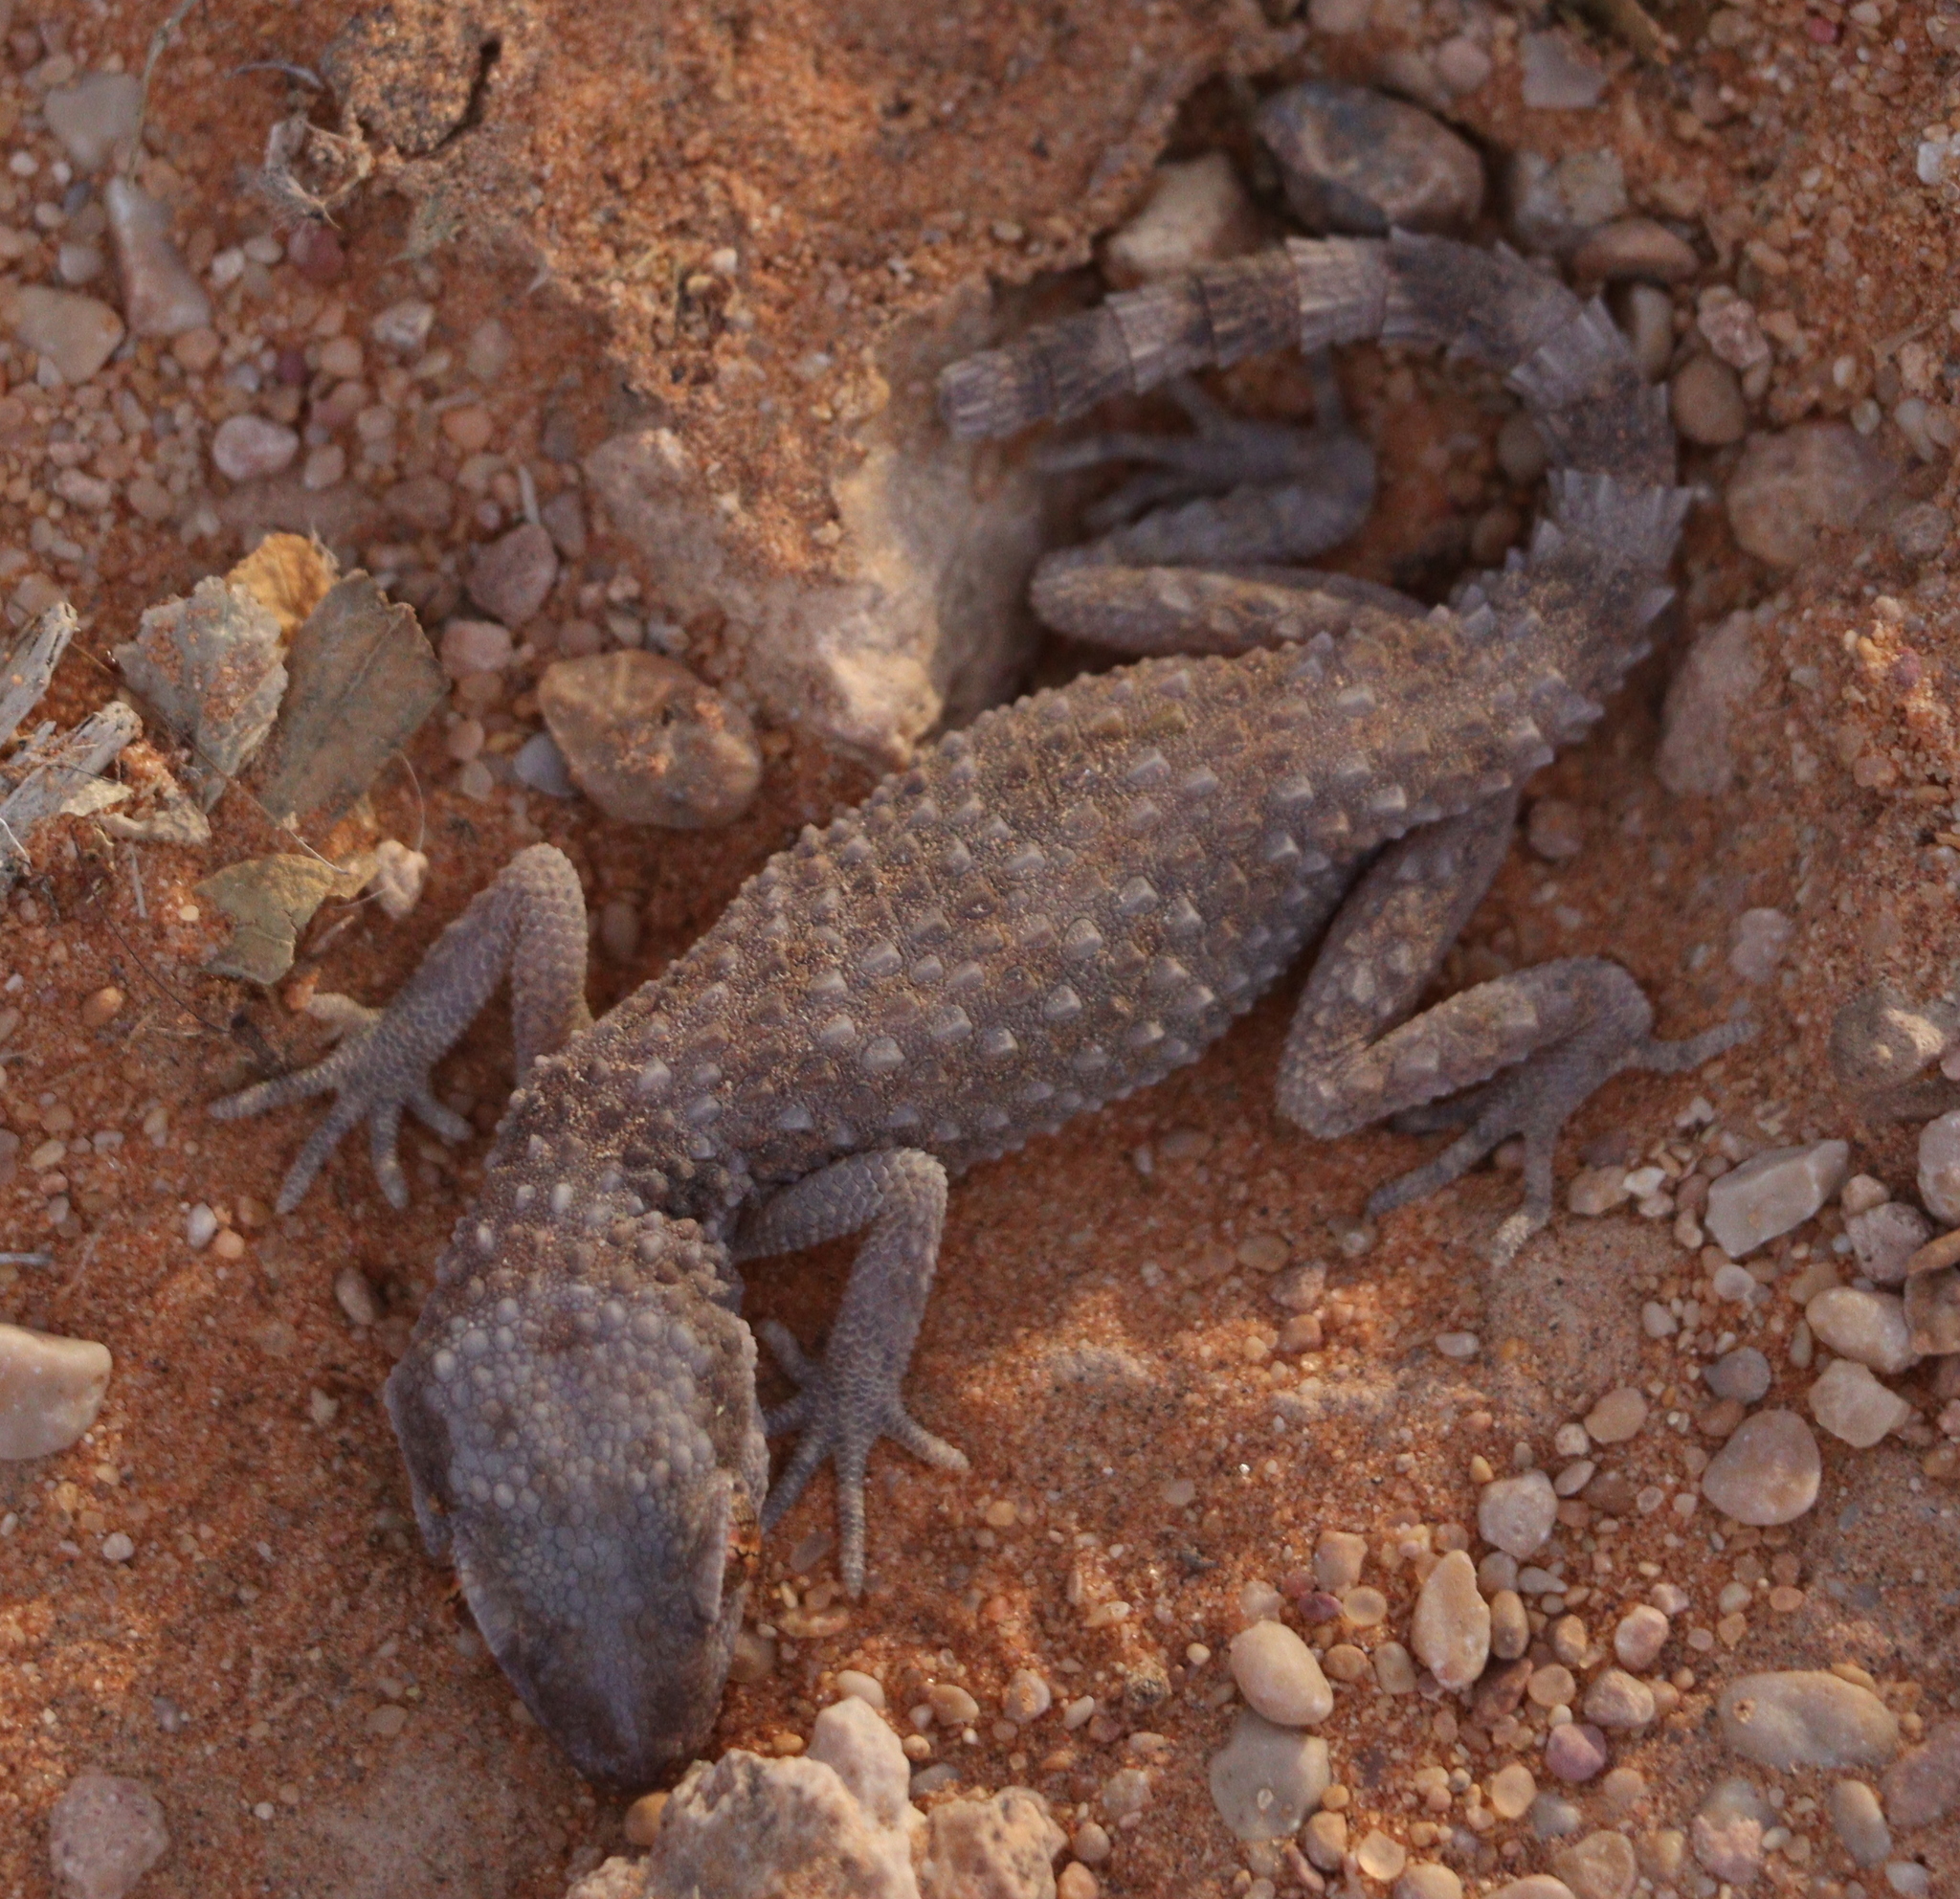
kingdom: Animalia
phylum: Chordata
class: Squamata
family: Gekkonidae
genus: Bunopus
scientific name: Bunopus tuberculatus
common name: Southern tuberculated gecko
